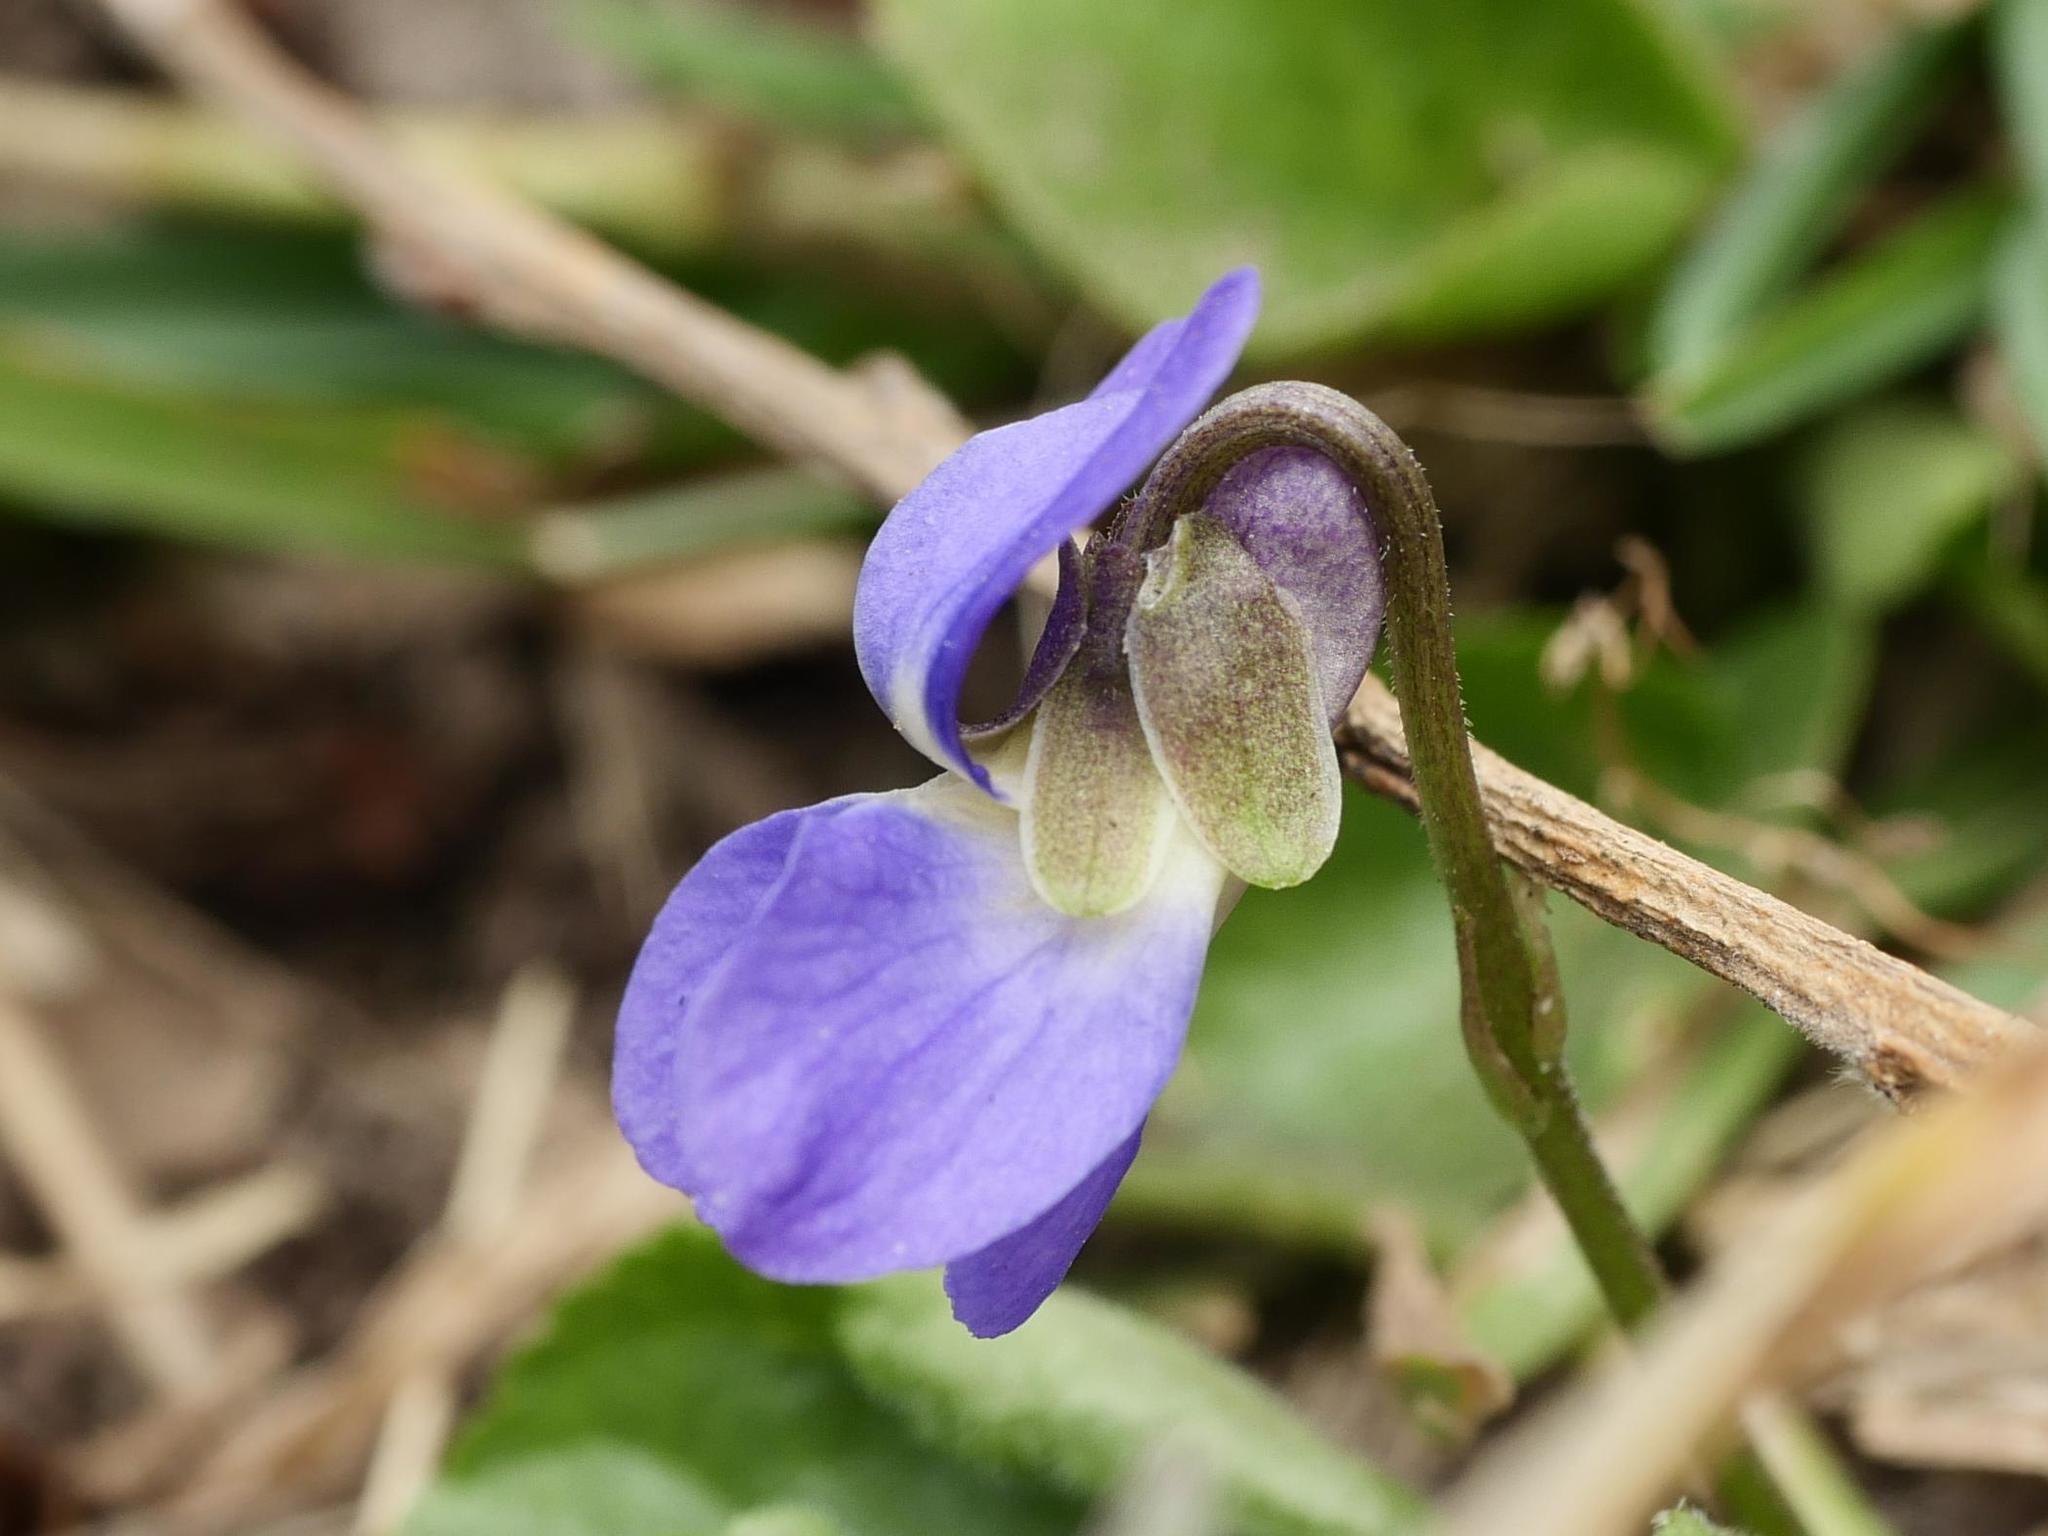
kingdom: Plantae
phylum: Tracheophyta
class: Magnoliopsida
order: Malpighiales
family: Violaceae
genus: Viola
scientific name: Viola odorata
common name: Sweet violet
